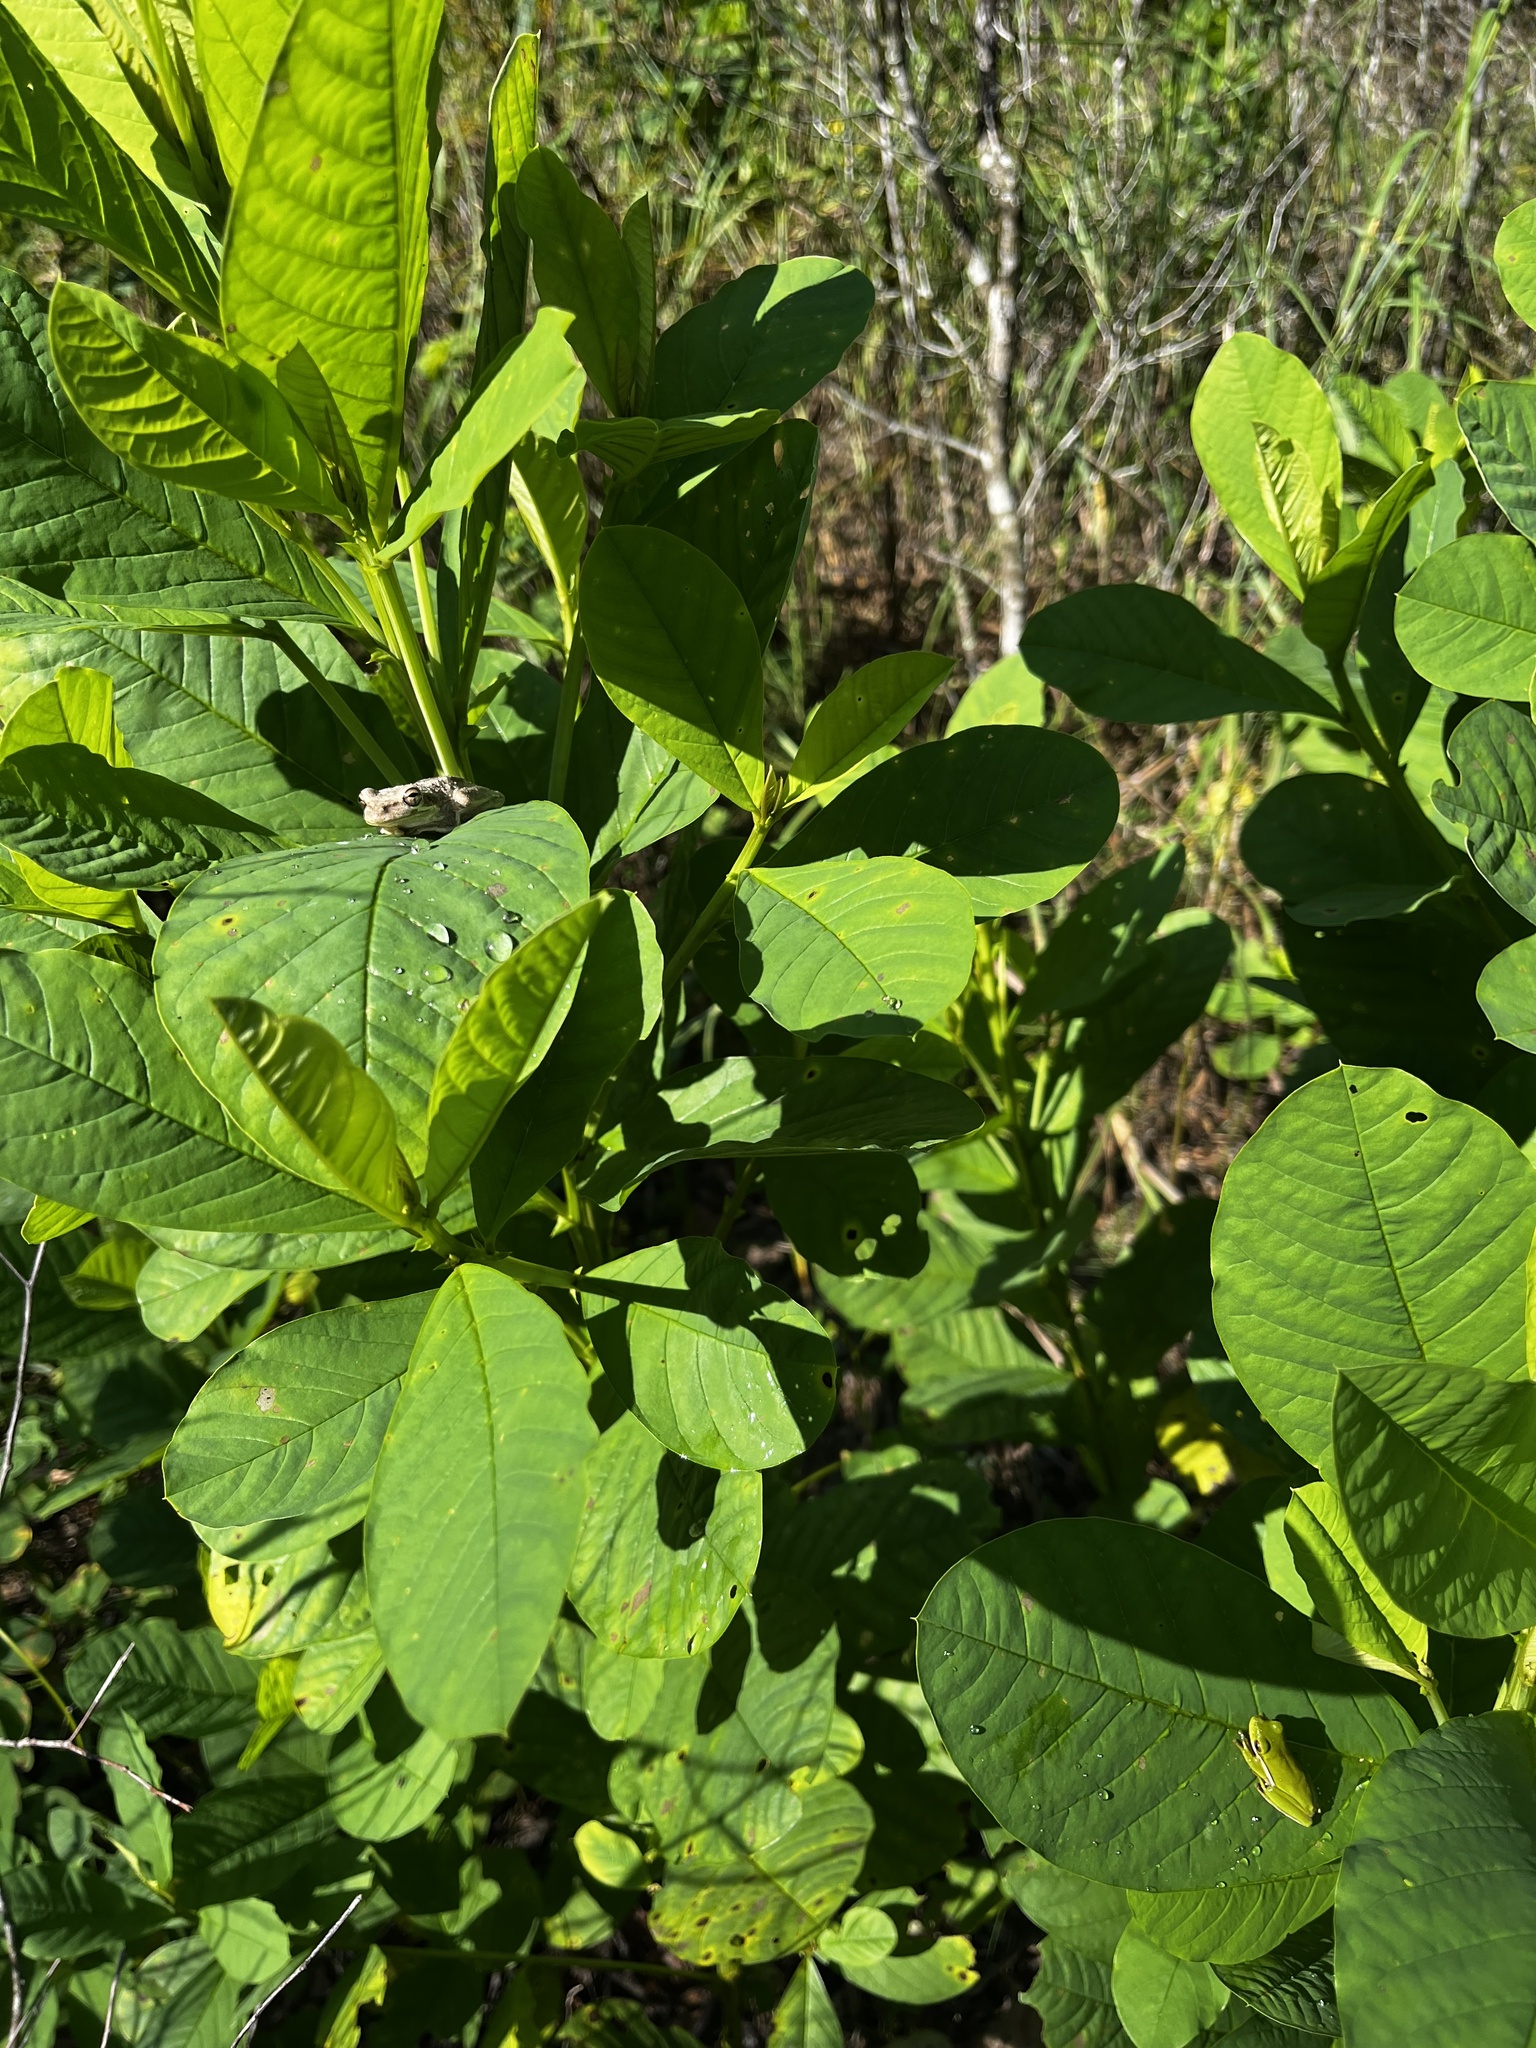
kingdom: Animalia
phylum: Chordata
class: Amphibia
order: Anura
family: Hylidae
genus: Dryophytes
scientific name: Dryophytes cinereus
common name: Green treefrog
